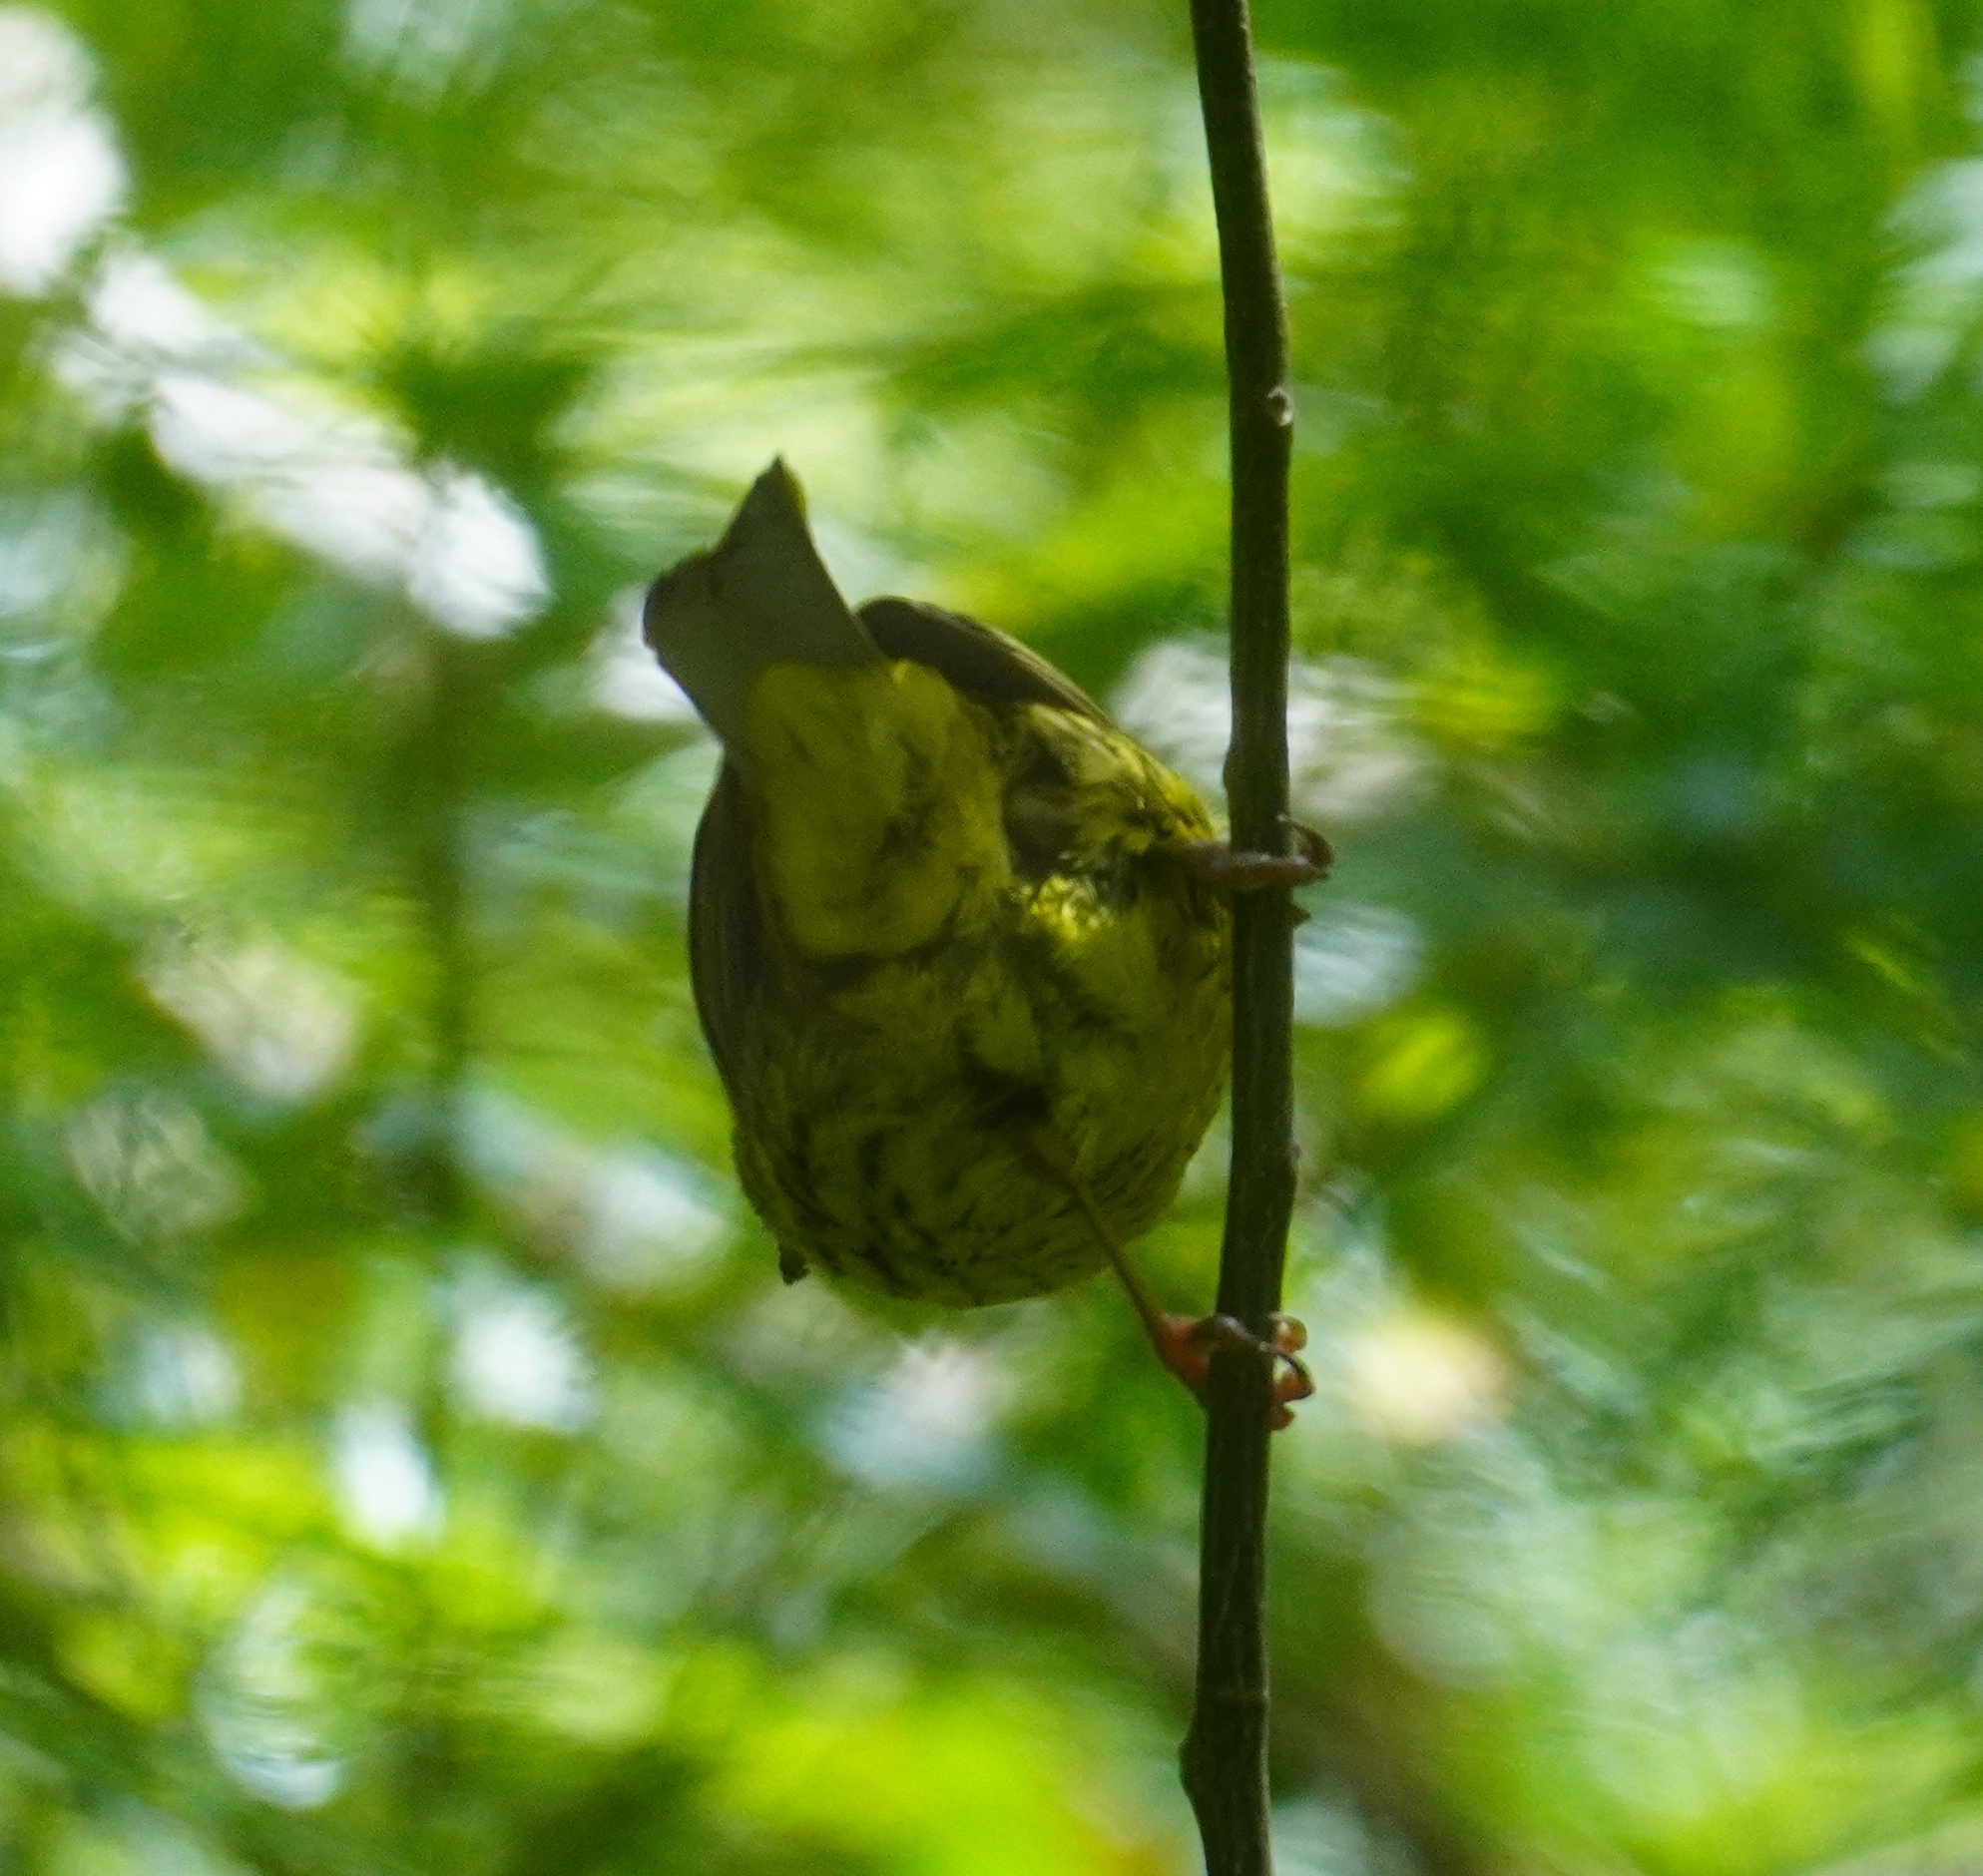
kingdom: Animalia
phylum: Chordata
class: Aves
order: Passeriformes
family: Fringillidae
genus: Crithagra
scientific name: Crithagra scotops
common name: Forest canary
